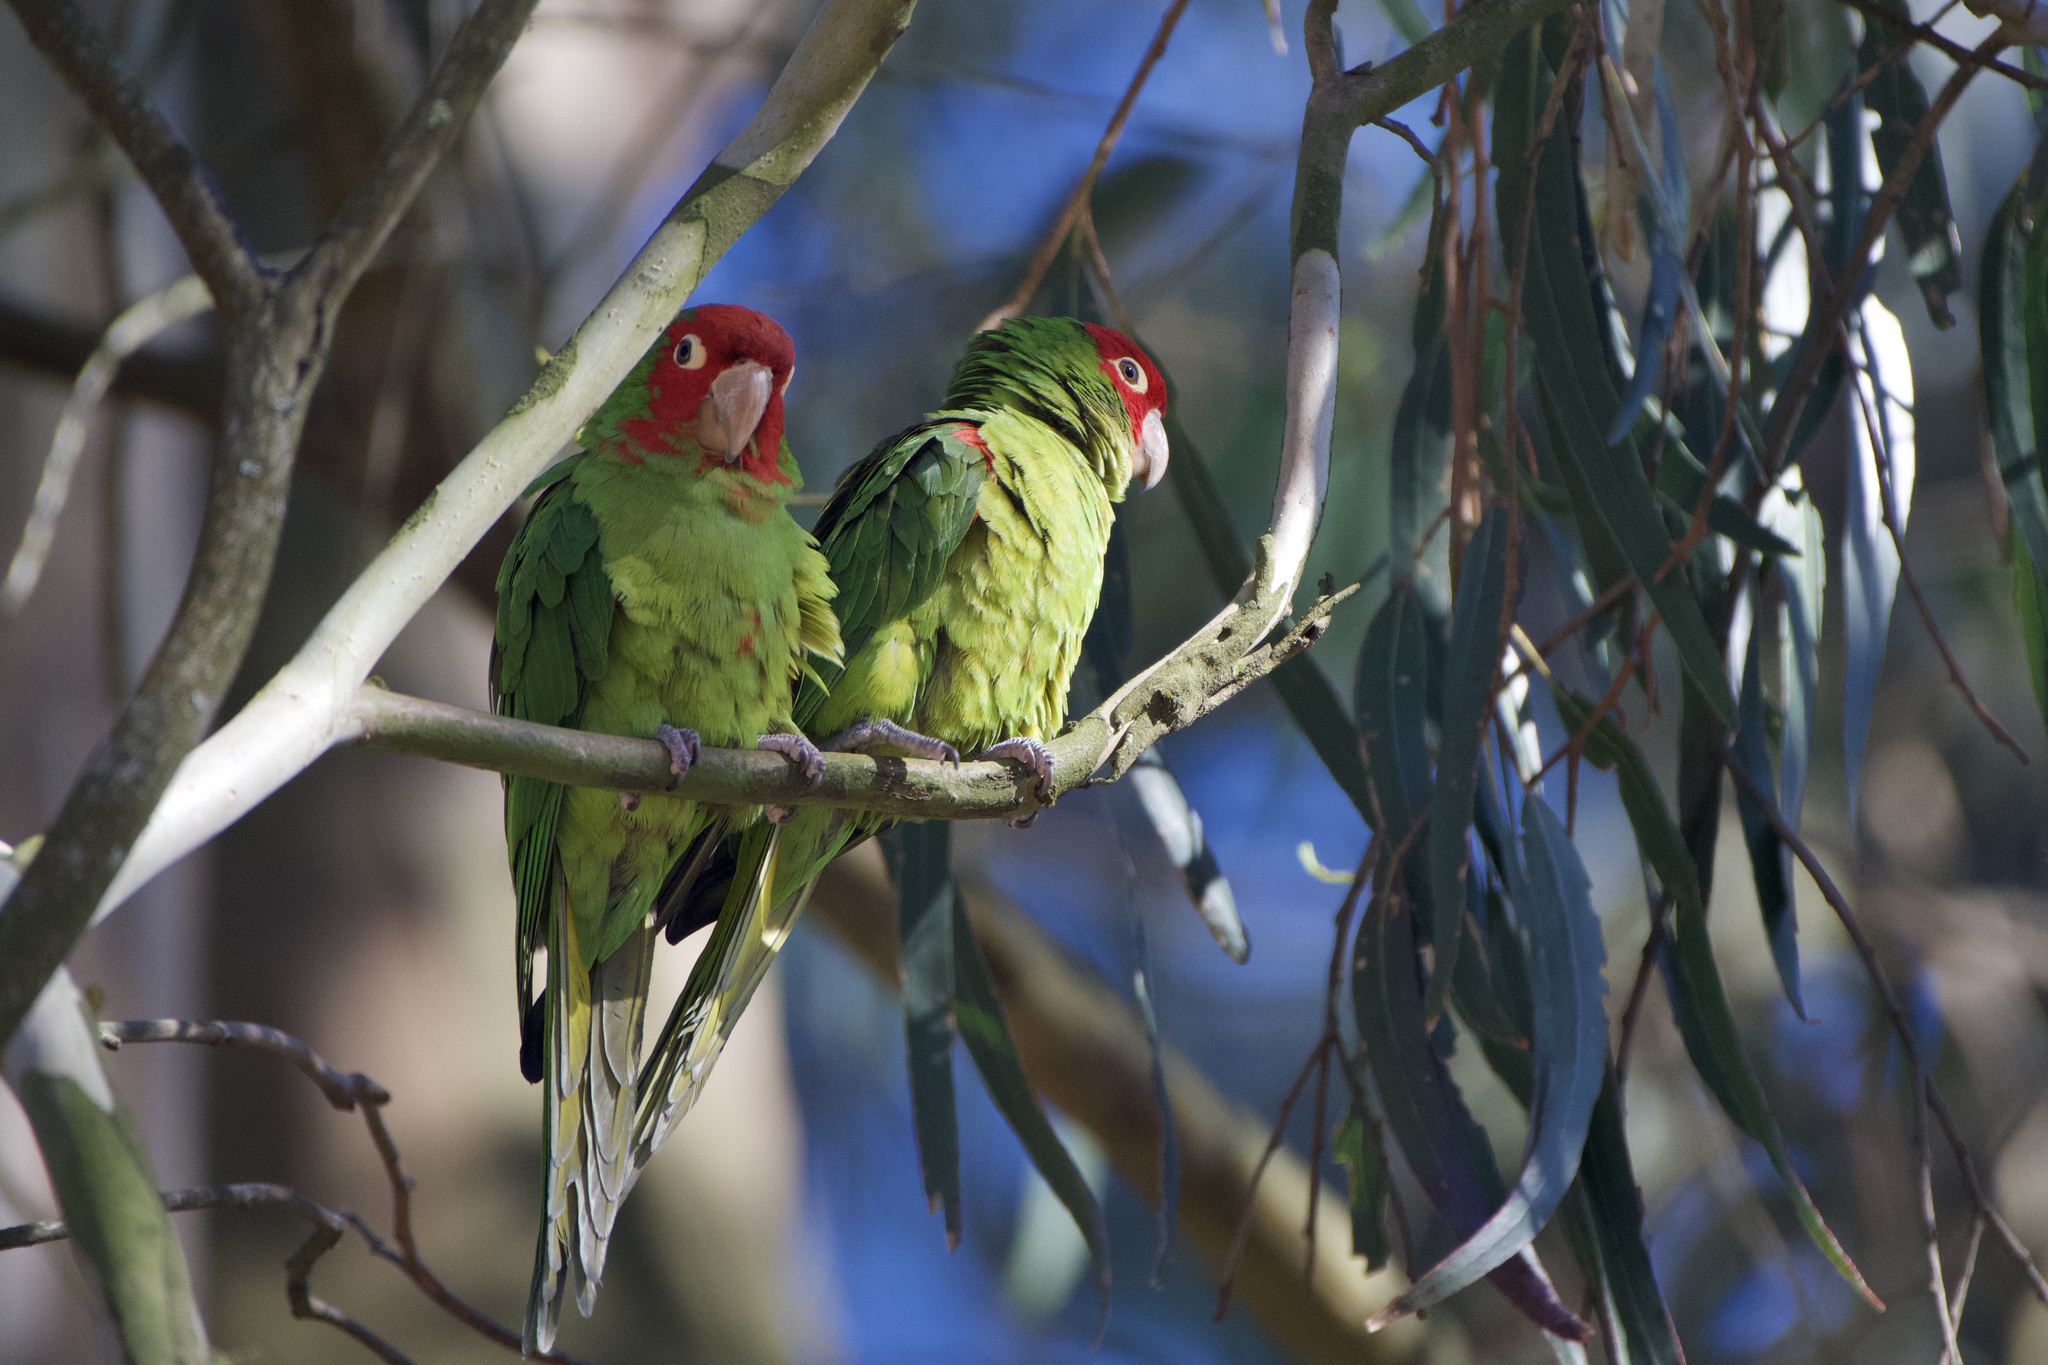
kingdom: Animalia
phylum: Chordata
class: Aves
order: Psittaciformes
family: Psittacidae
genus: Aratinga
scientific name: Aratinga erythrogenys
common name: Red-masked parakeet
